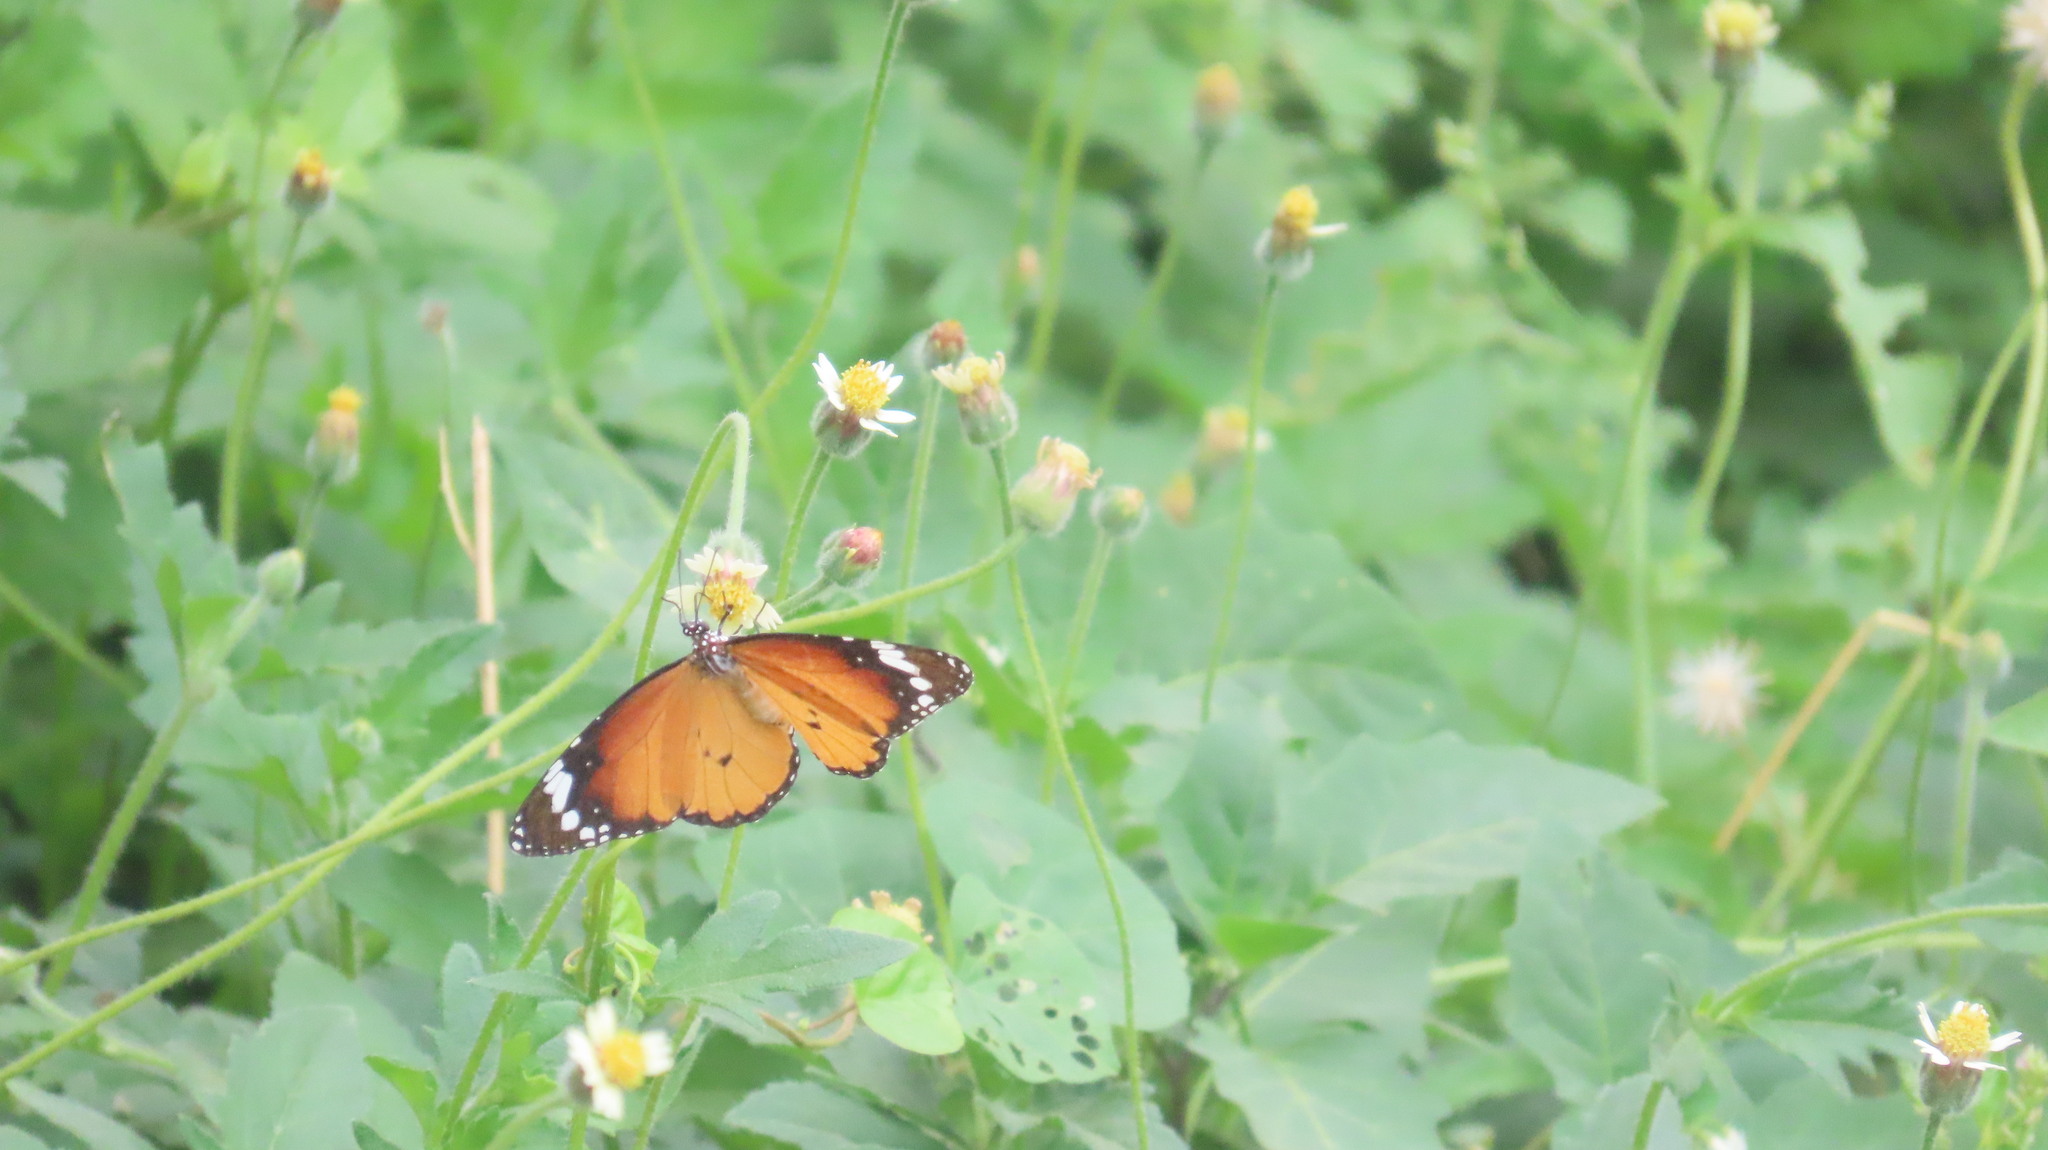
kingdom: Animalia
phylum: Arthropoda
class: Insecta
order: Lepidoptera
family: Nymphalidae
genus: Danaus
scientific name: Danaus chrysippus
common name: Plain tiger
